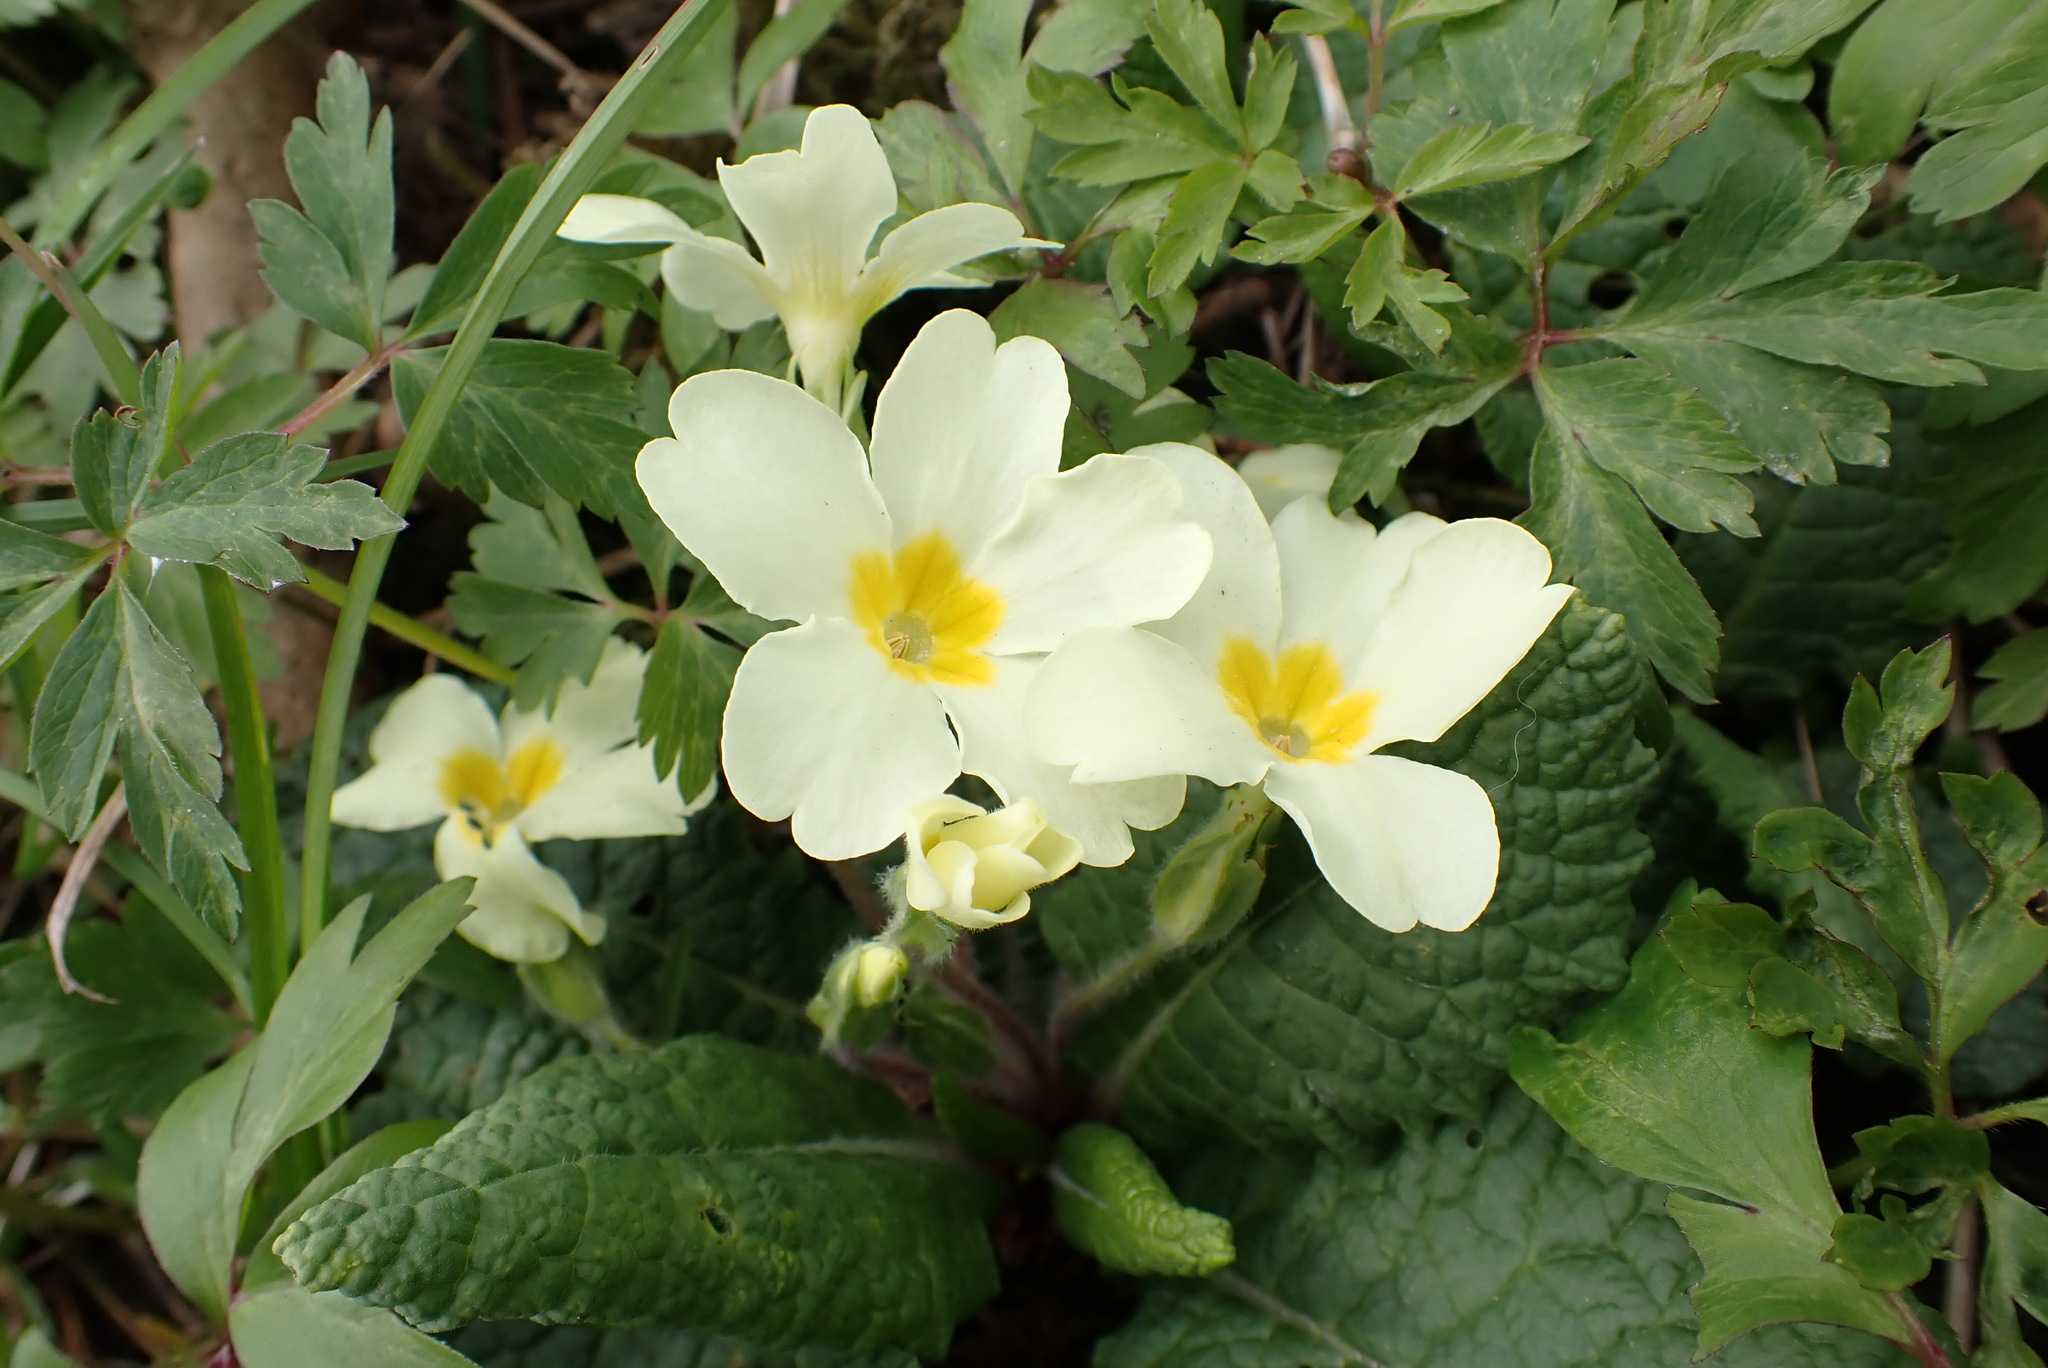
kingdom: Plantae
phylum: Tracheophyta
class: Magnoliopsida
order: Ericales
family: Primulaceae
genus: Primula
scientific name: Primula vulgaris
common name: Primrose
